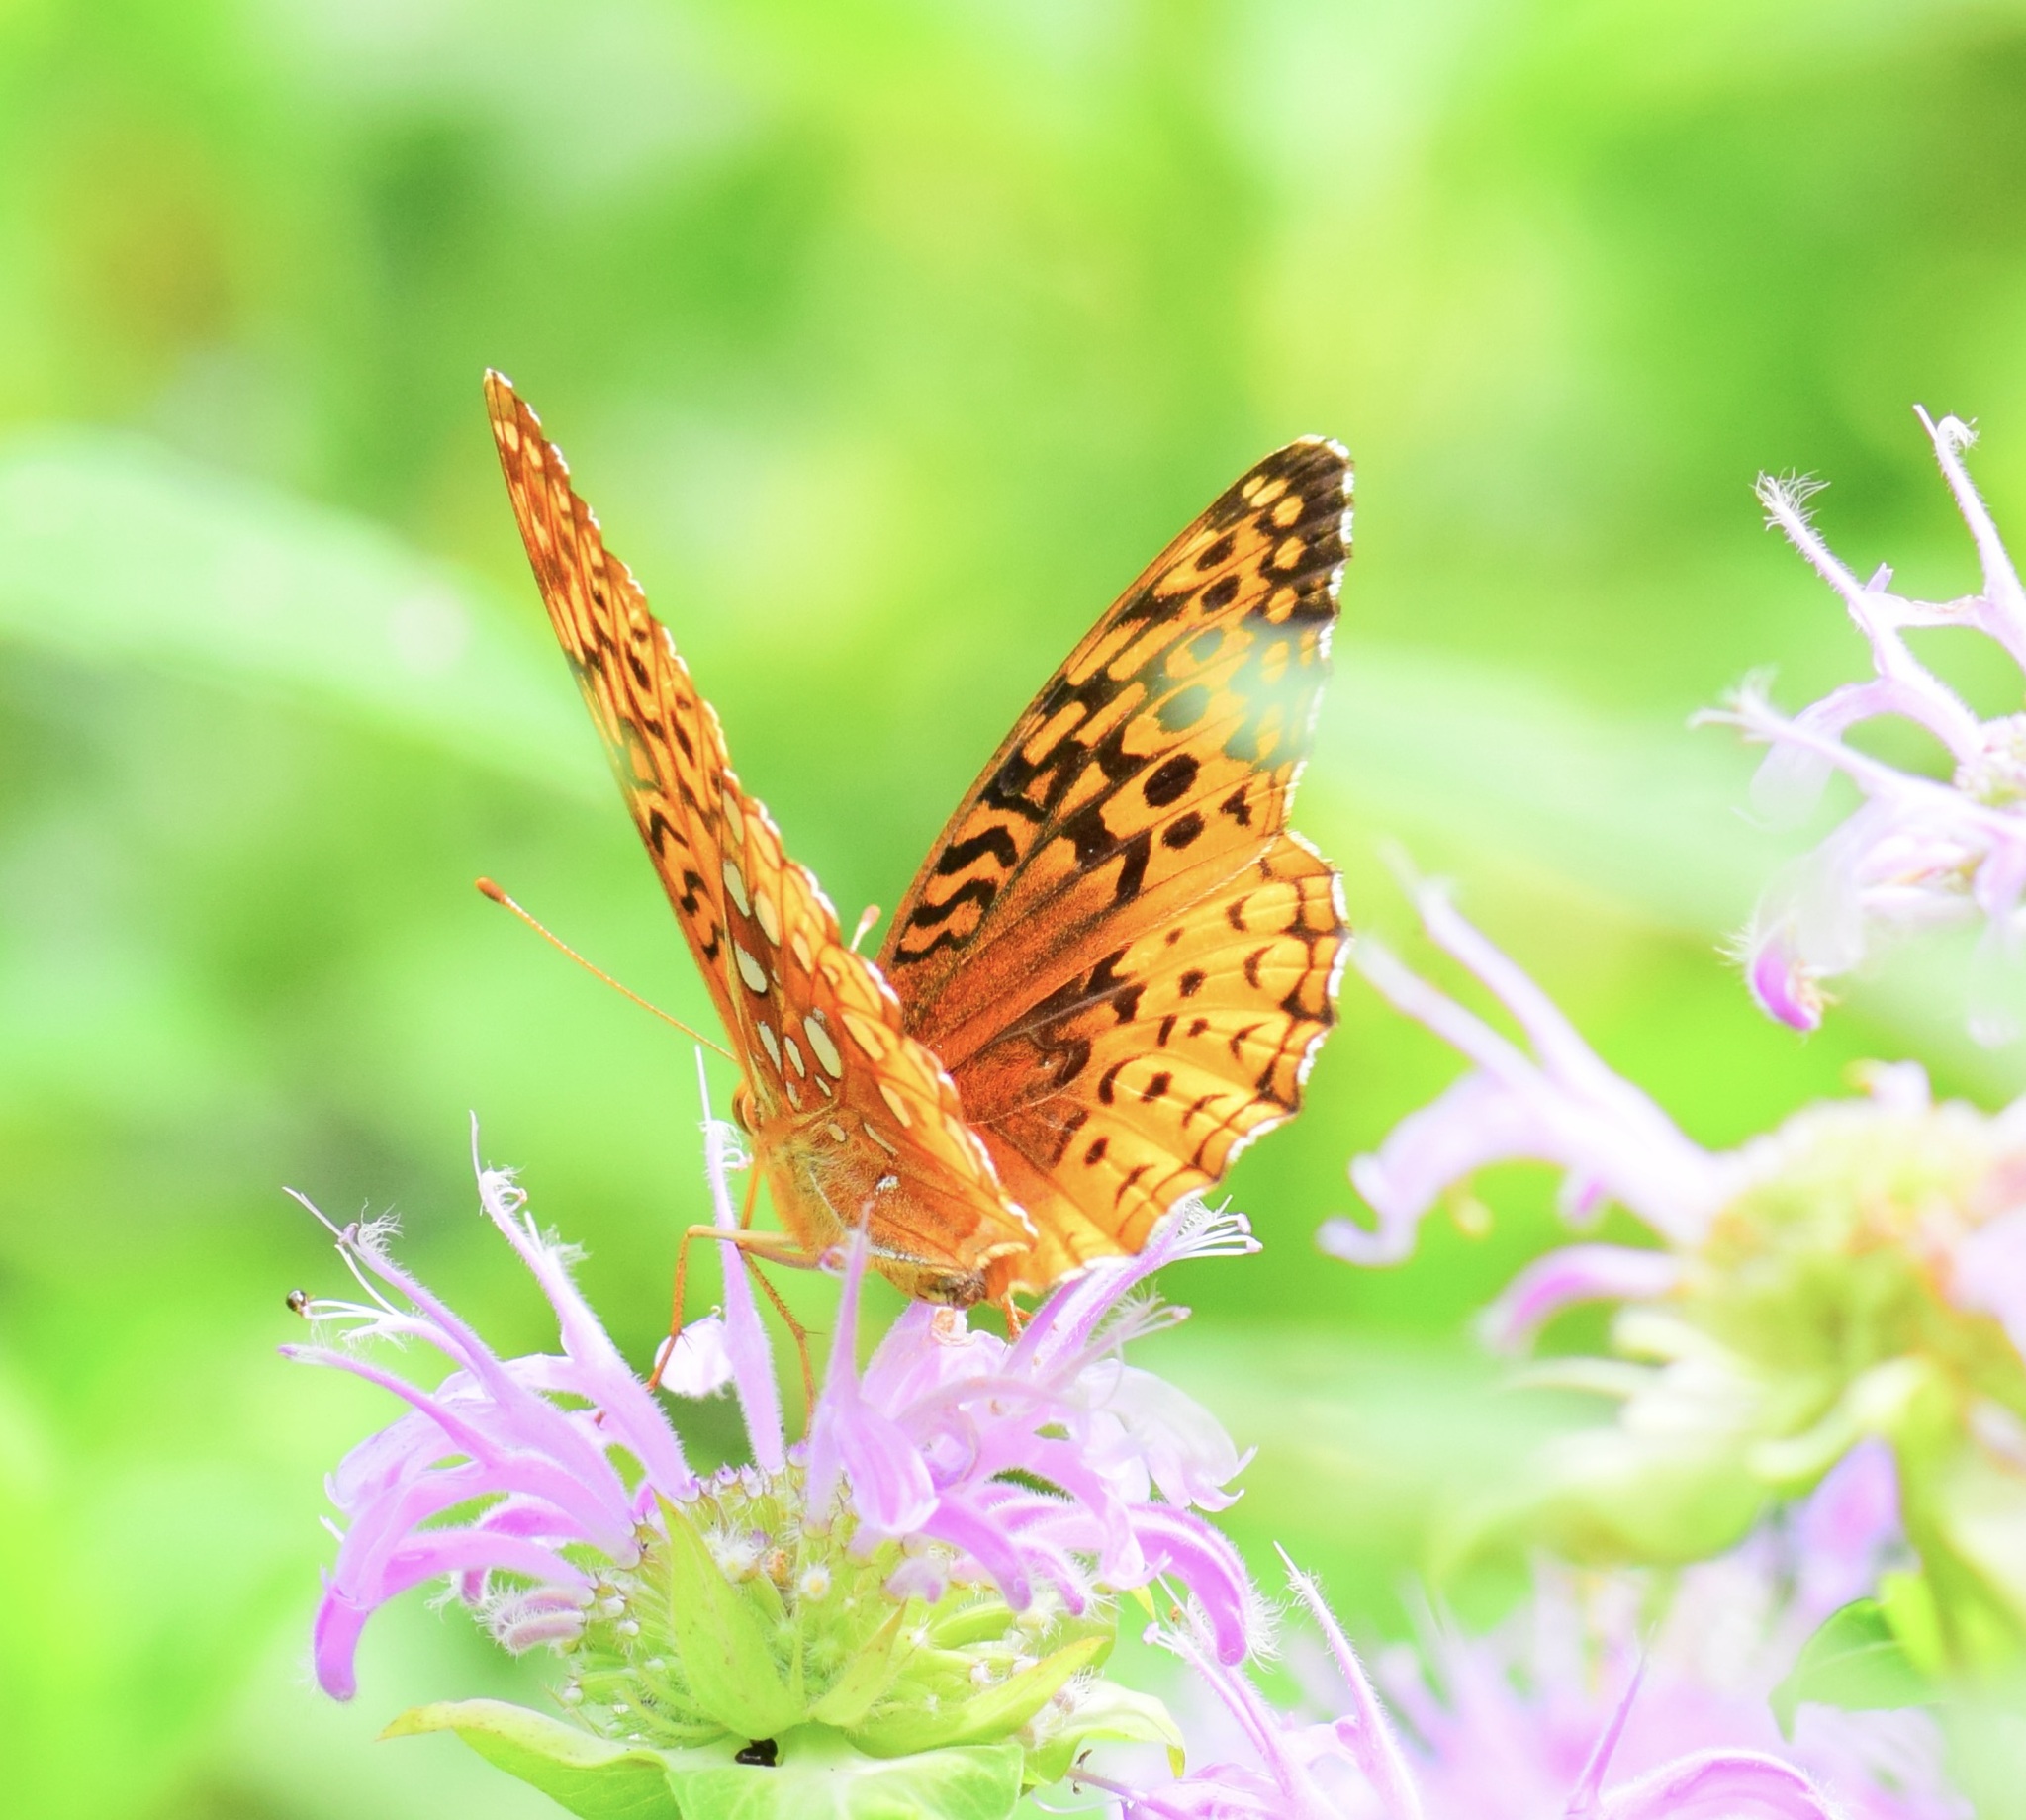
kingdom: Animalia
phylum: Arthropoda
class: Insecta
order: Lepidoptera
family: Nymphalidae
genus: Speyeria
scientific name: Speyeria cybele
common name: Great spangled fritillary
